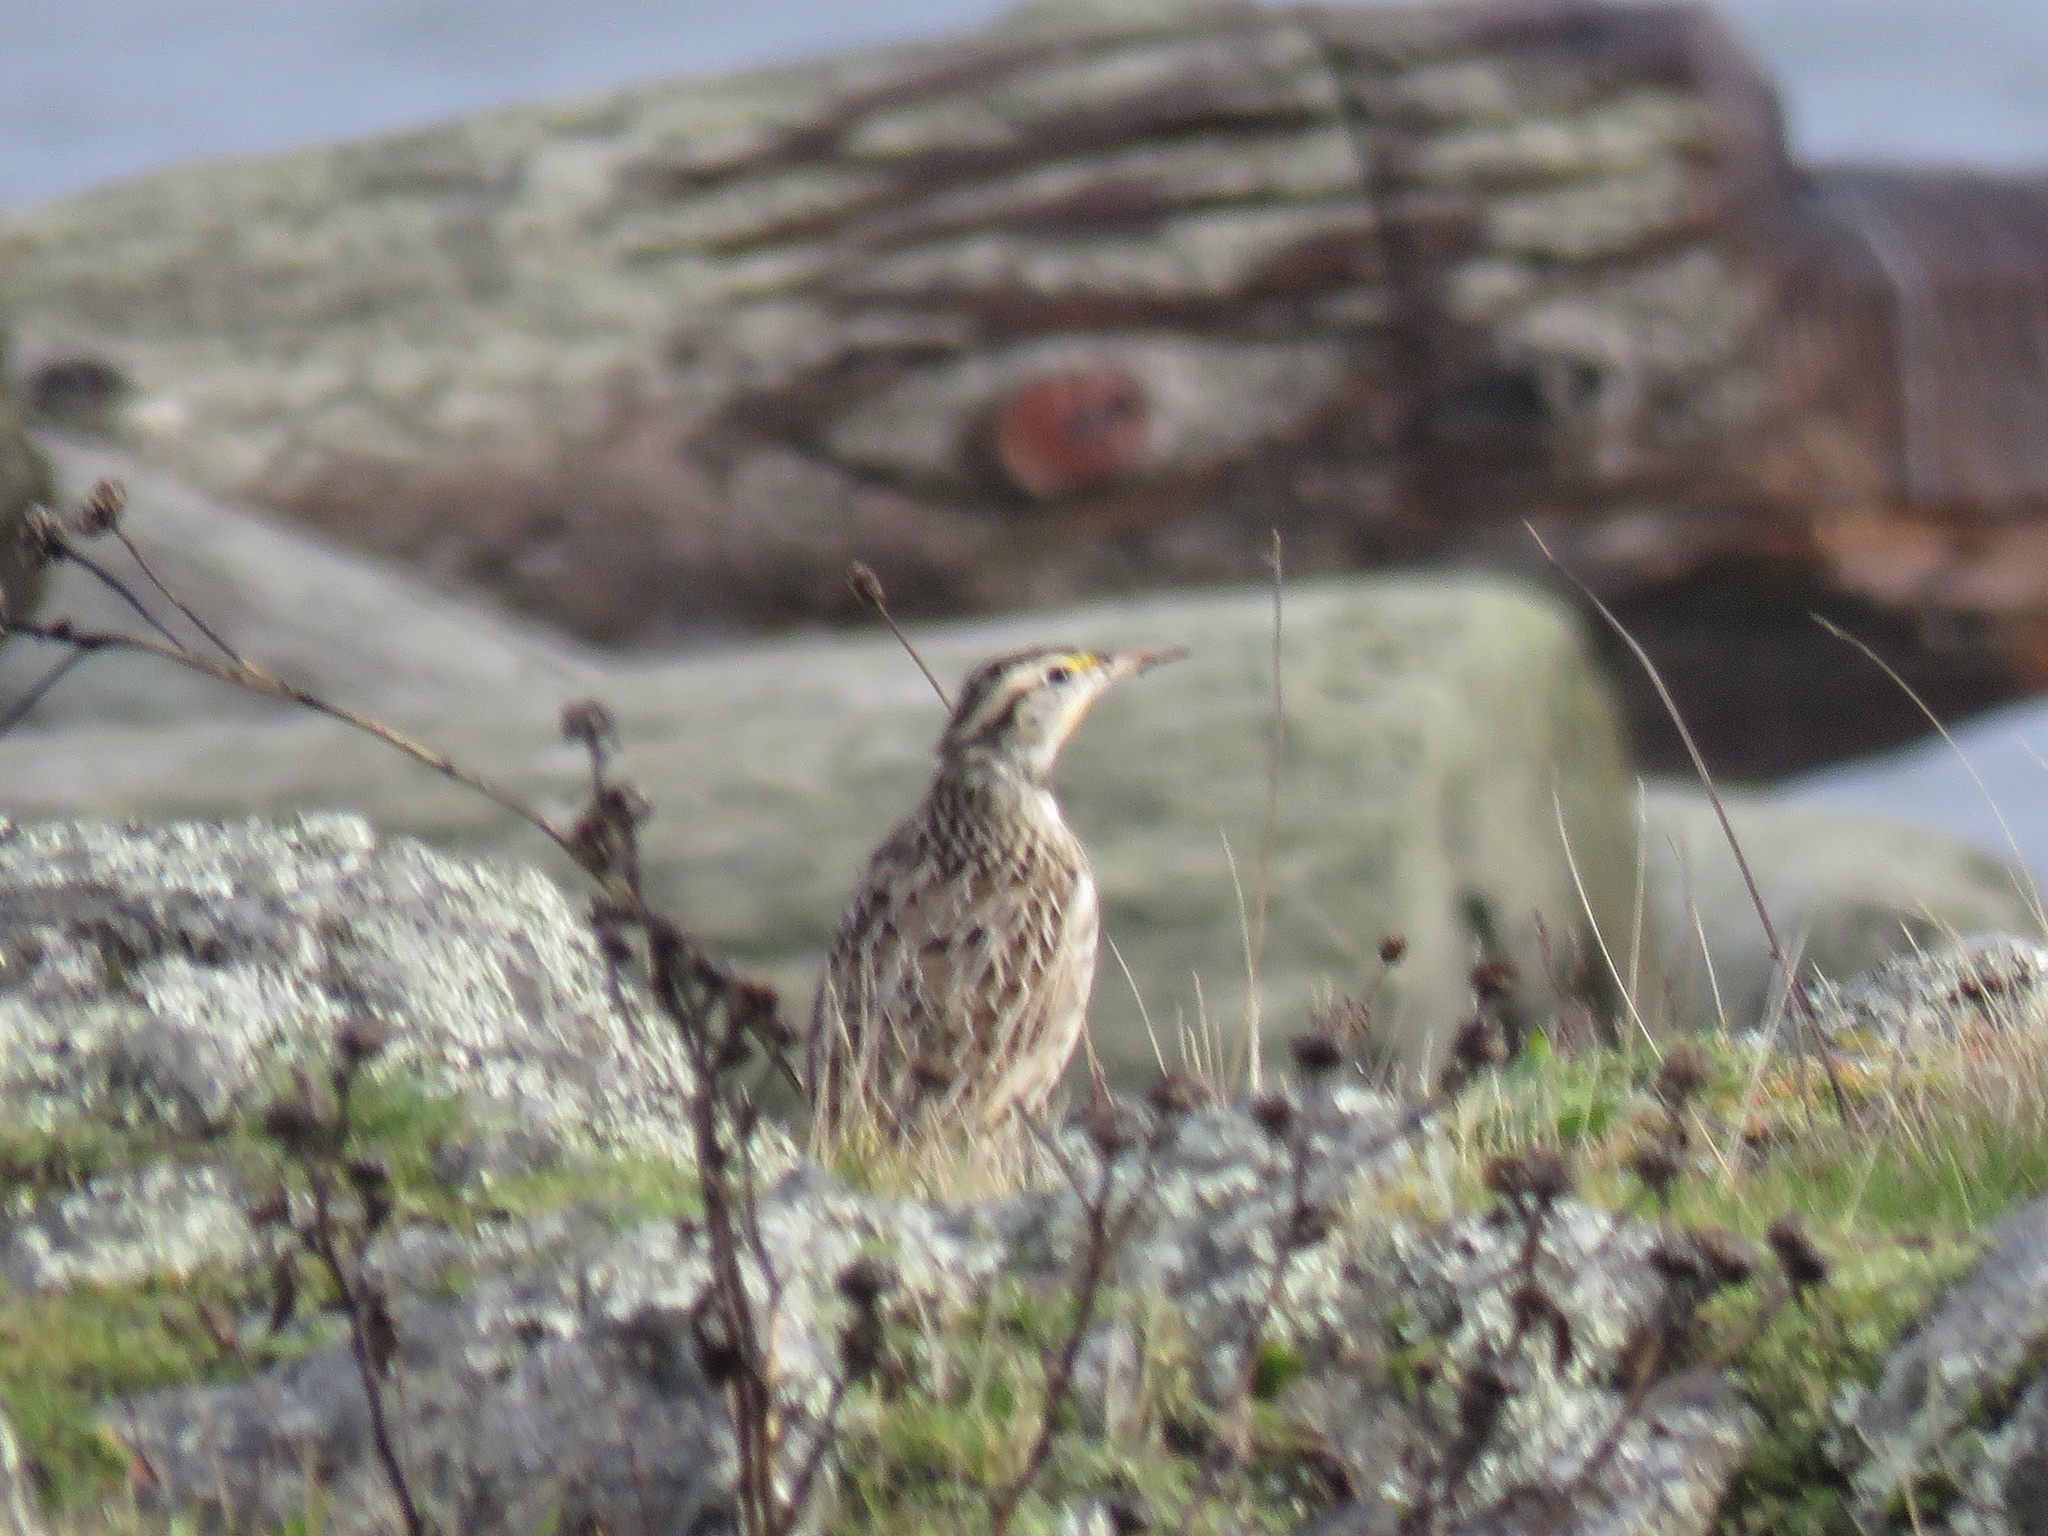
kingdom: Animalia
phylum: Chordata
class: Aves
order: Passeriformes
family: Icteridae
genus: Sturnella
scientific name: Sturnella neglecta
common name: Western meadowlark
